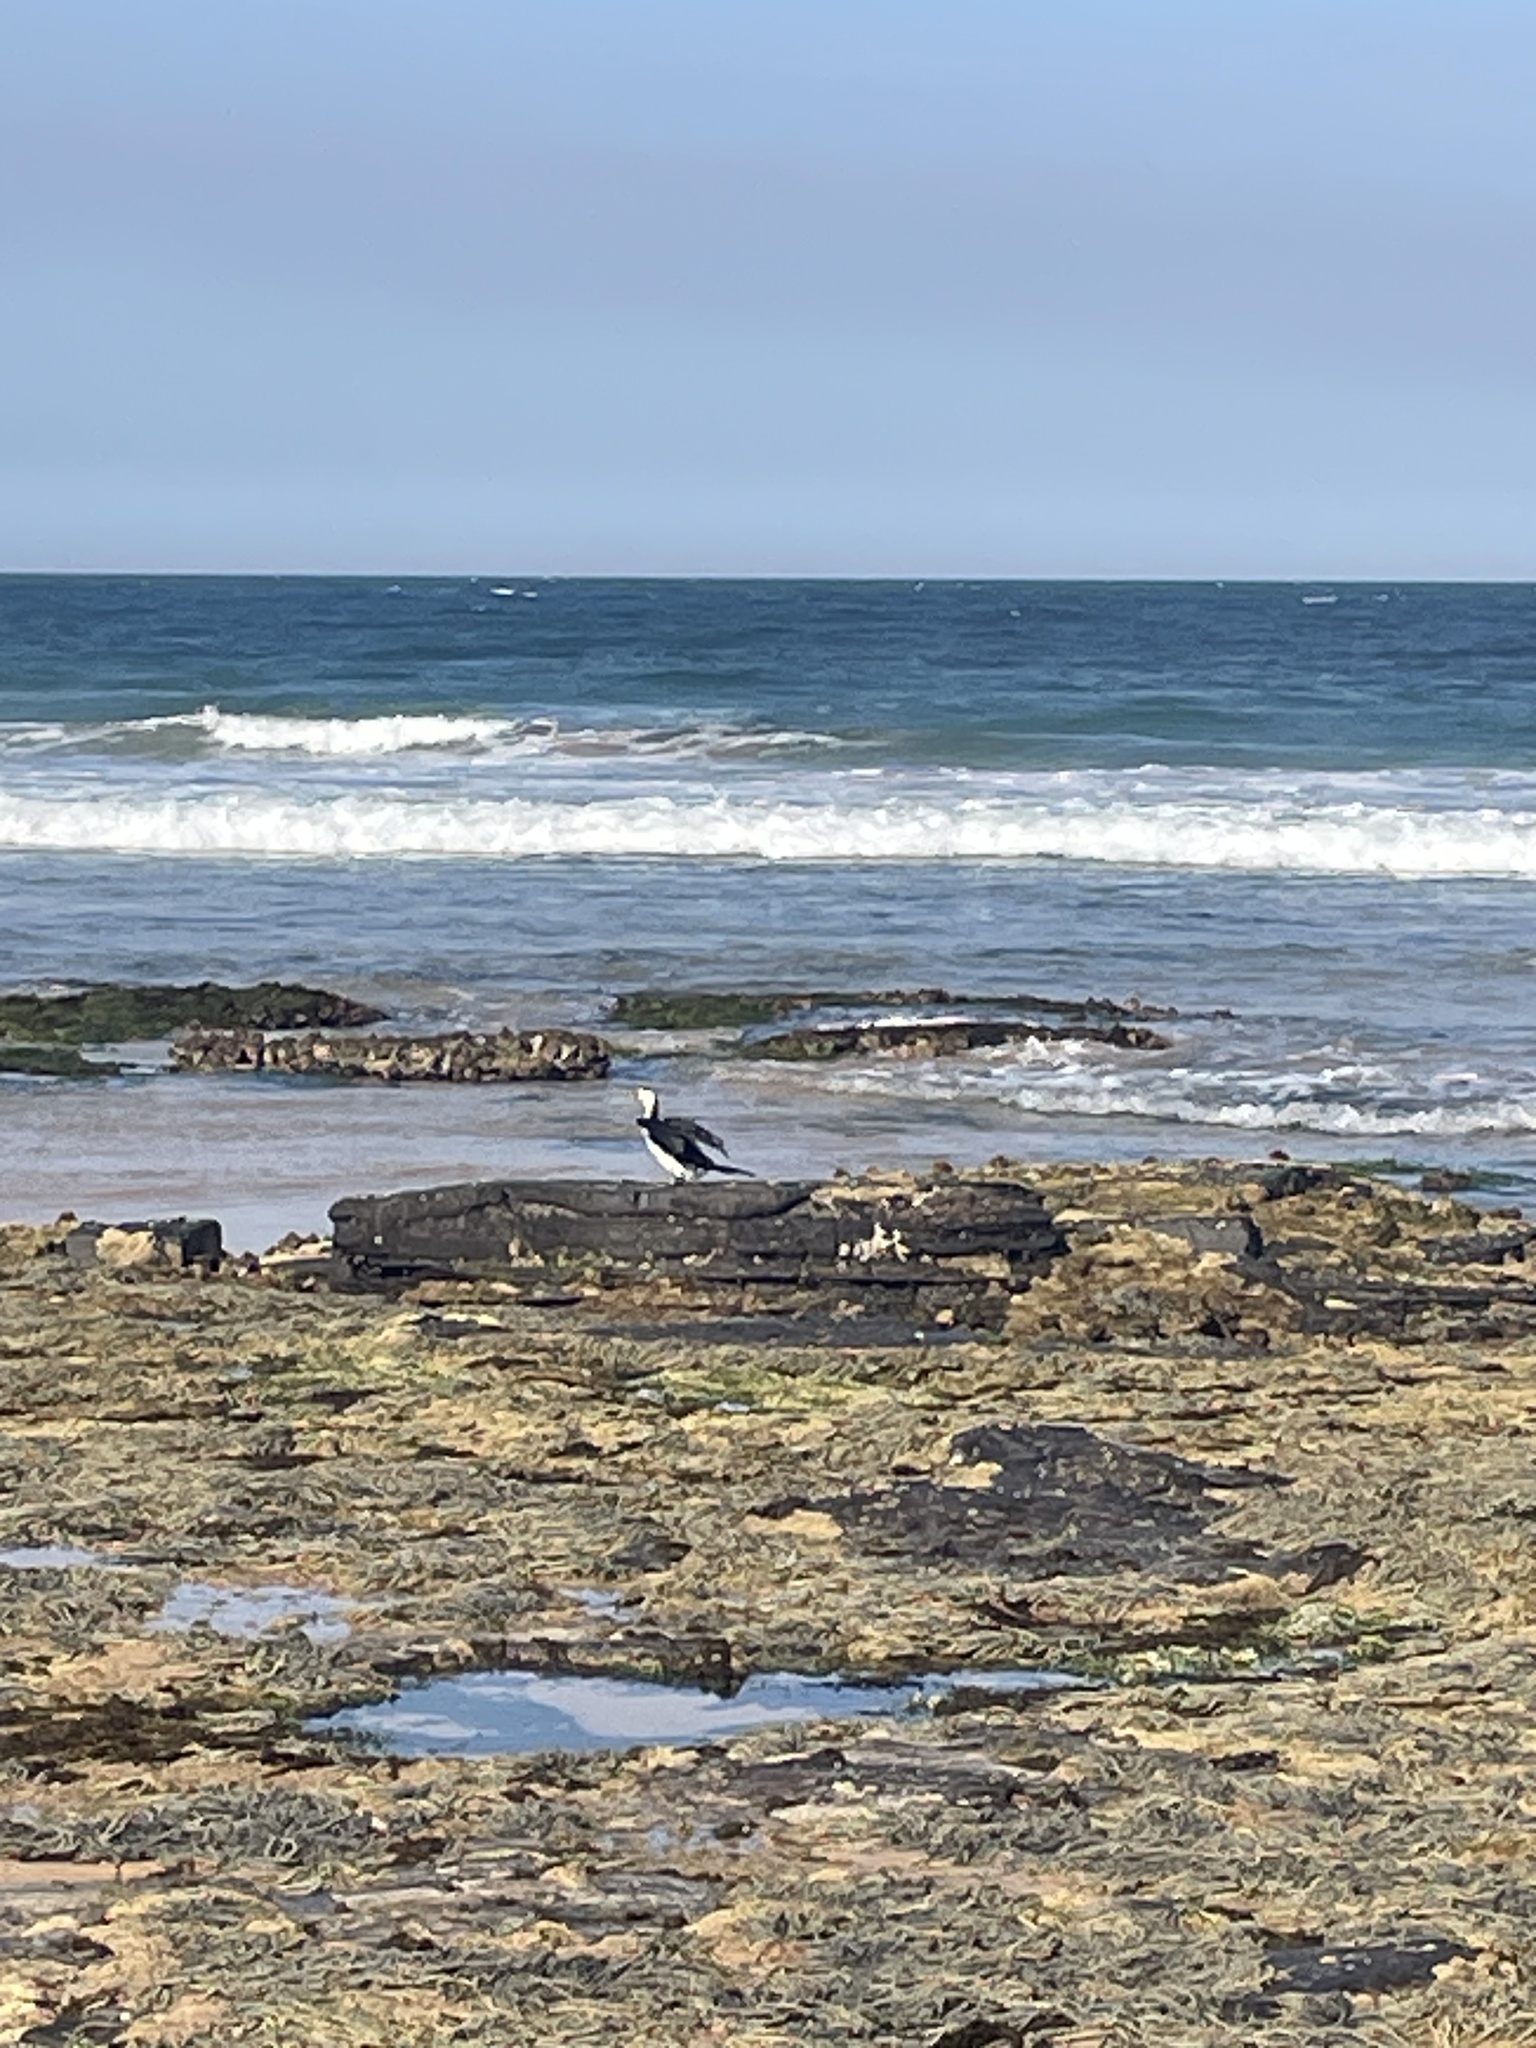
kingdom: Animalia
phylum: Chordata
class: Aves
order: Suliformes
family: Phalacrocoracidae
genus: Microcarbo
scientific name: Microcarbo melanoleucos
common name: Little pied cormorant
